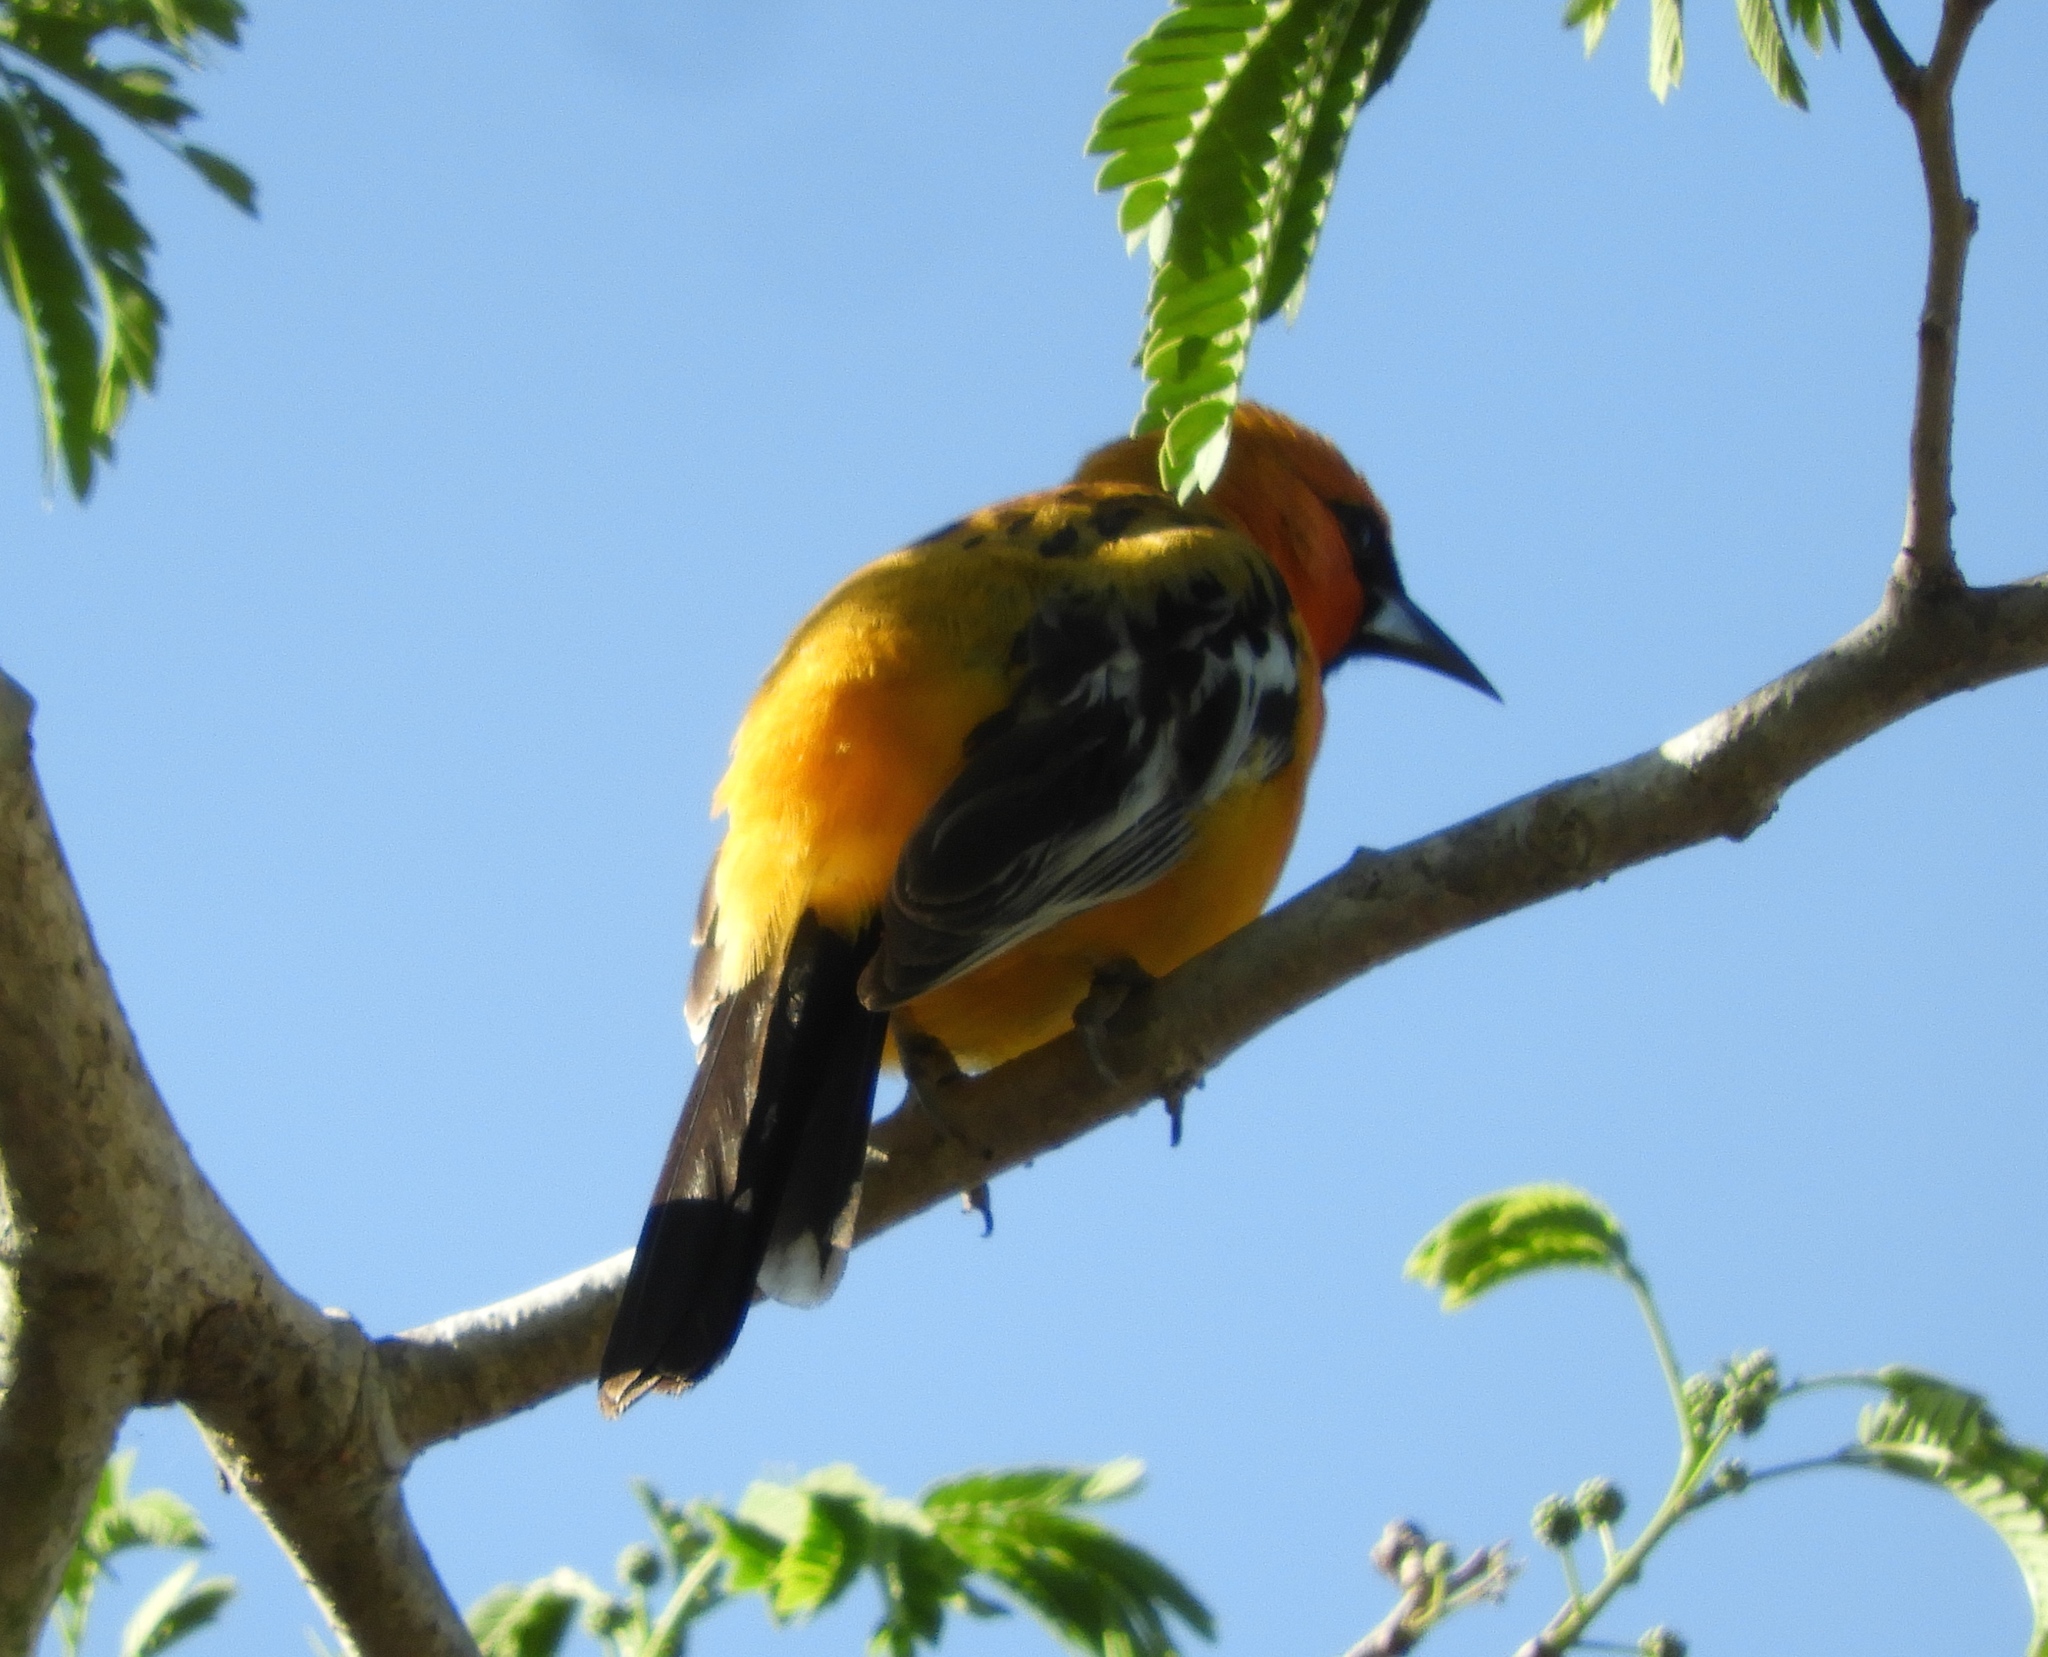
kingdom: Animalia
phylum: Chordata
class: Aves
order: Passeriformes
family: Icteridae
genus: Icterus
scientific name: Icterus pustulatus
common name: Streak-backed oriole
